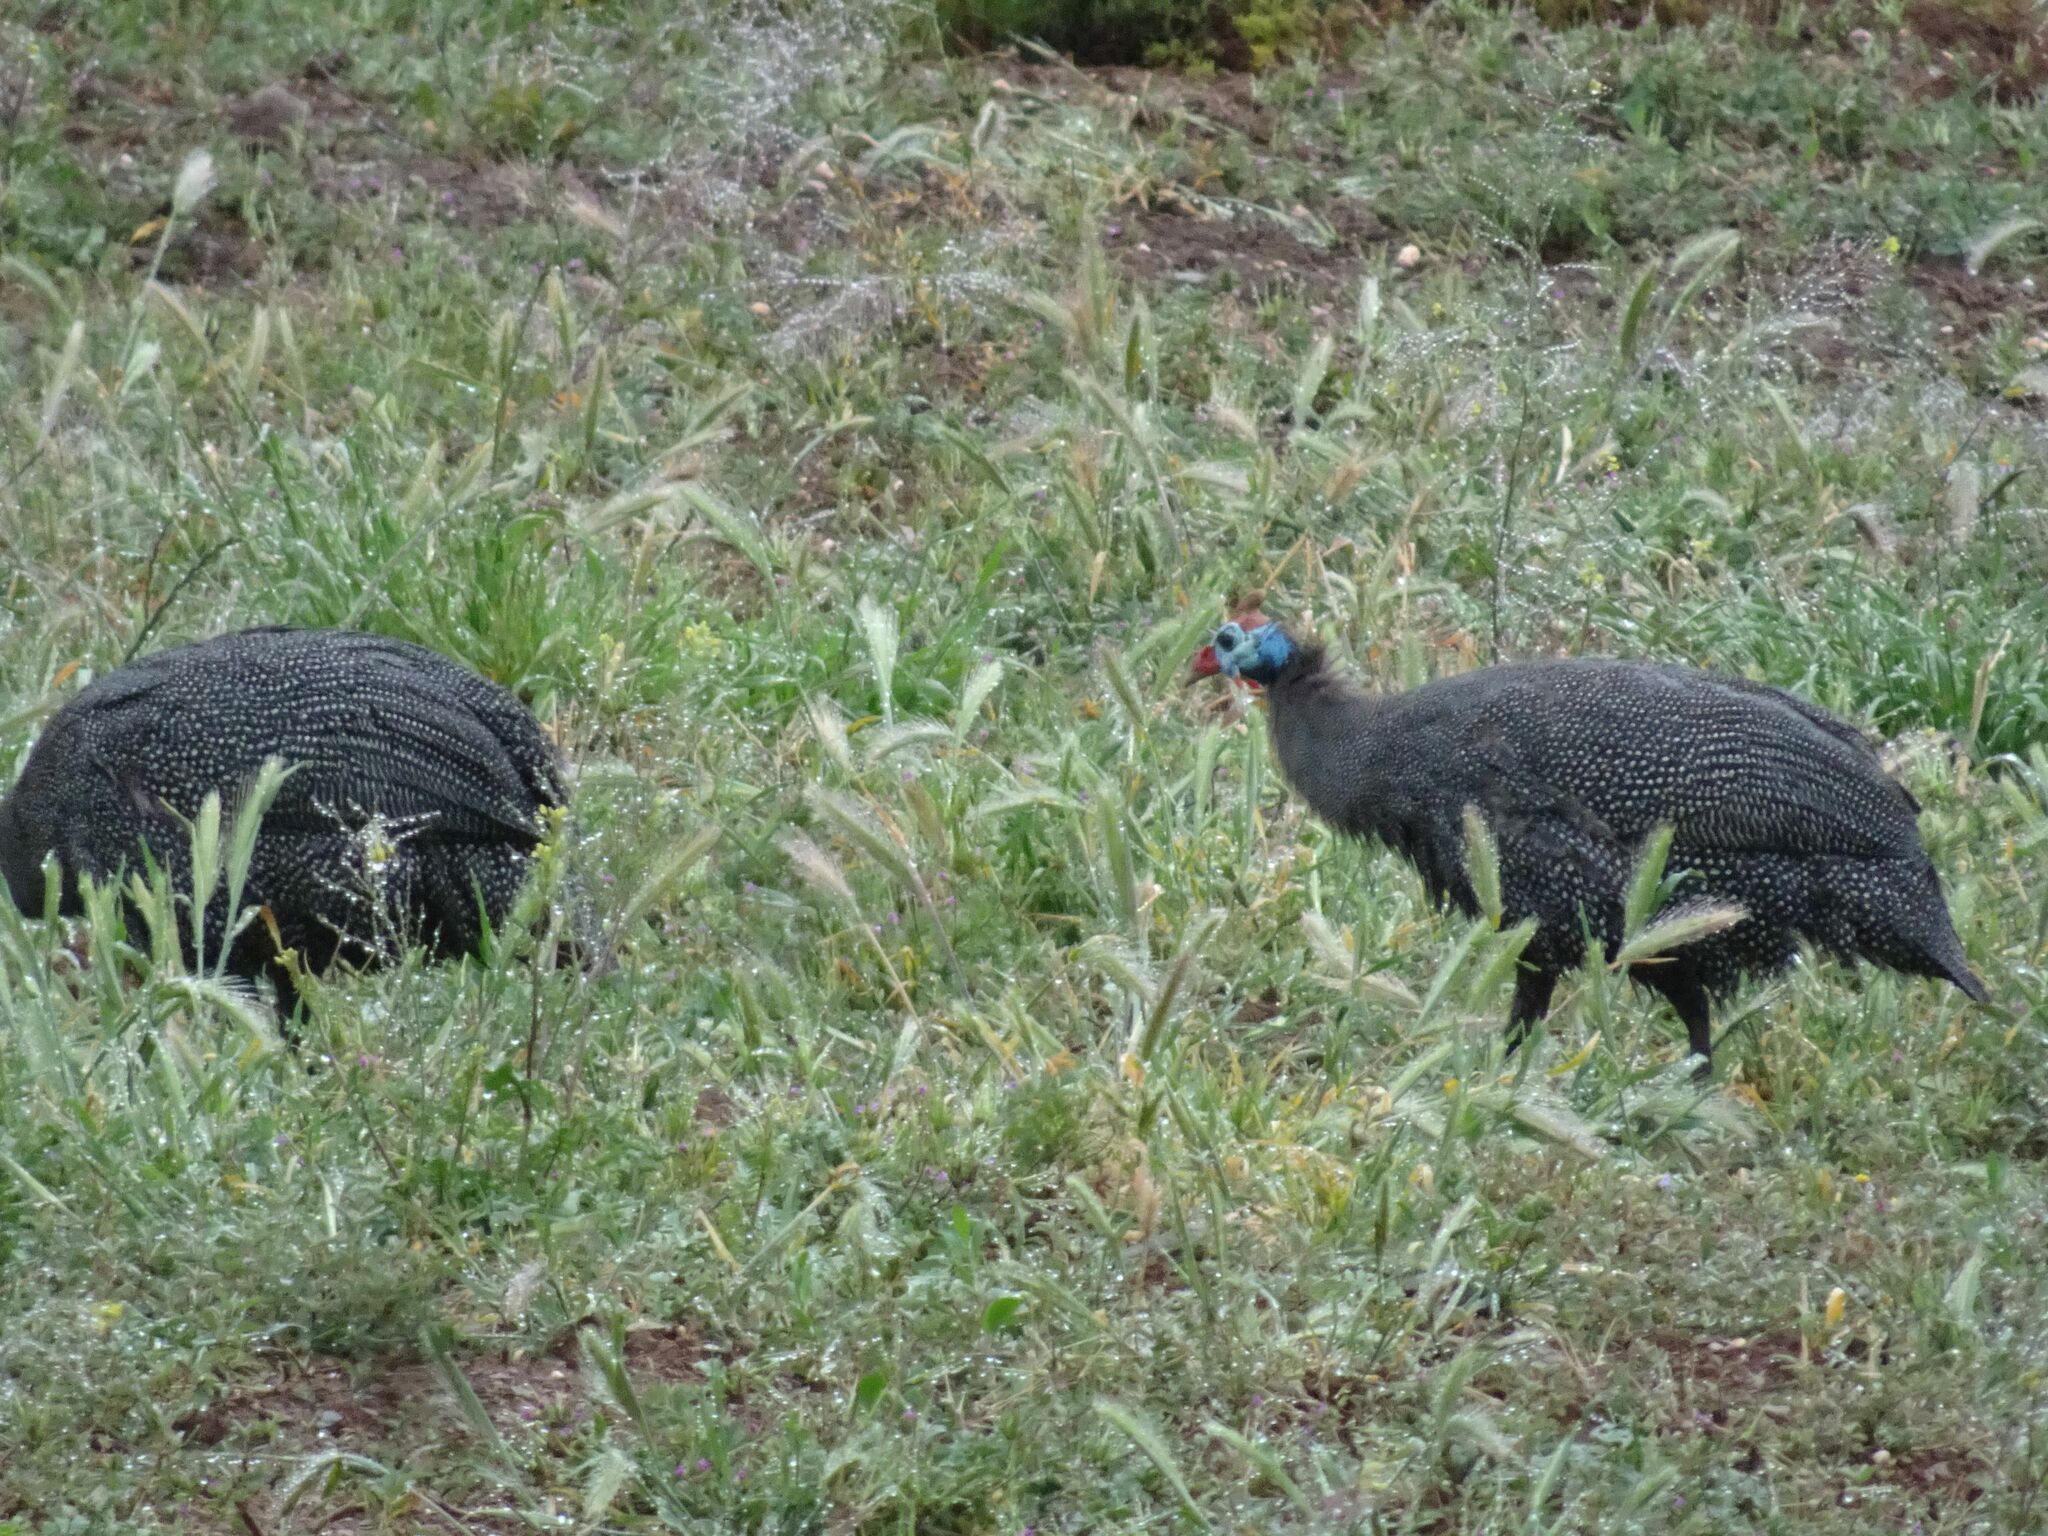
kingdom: Animalia
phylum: Chordata
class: Aves
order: Galliformes
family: Numididae
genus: Numida
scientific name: Numida meleagris
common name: Helmeted guineafowl
